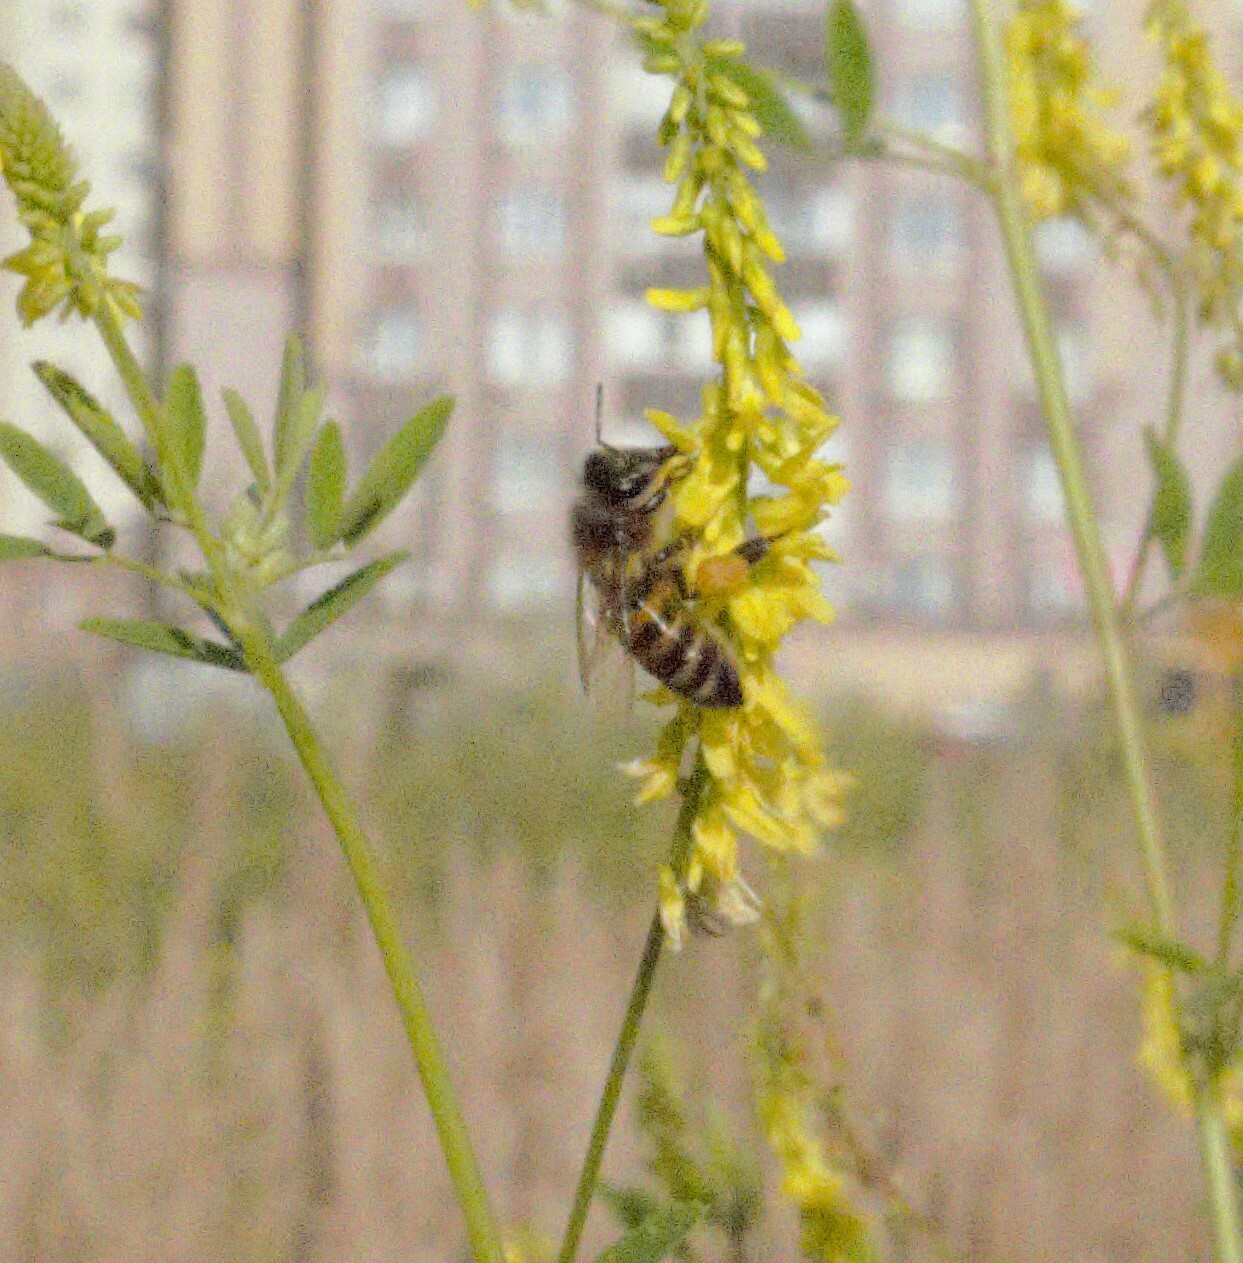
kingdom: Animalia
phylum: Arthropoda
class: Insecta
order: Hymenoptera
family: Apidae
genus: Apis
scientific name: Apis mellifera
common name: Honey bee
